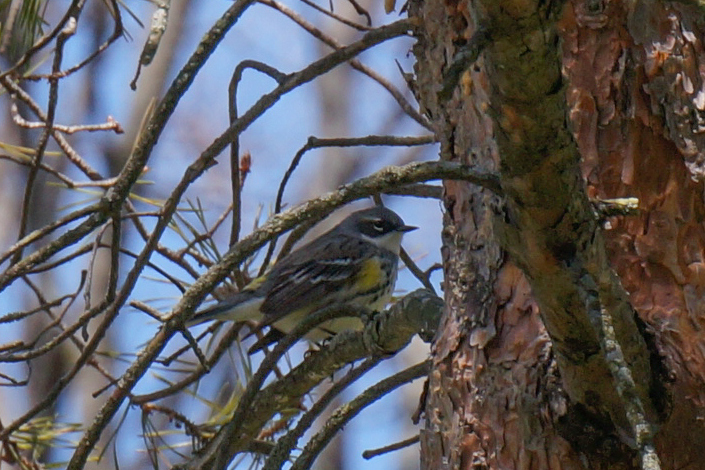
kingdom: Animalia
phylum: Chordata
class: Aves
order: Passeriformes
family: Parulidae
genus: Setophaga
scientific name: Setophaga coronata
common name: Myrtle warbler
